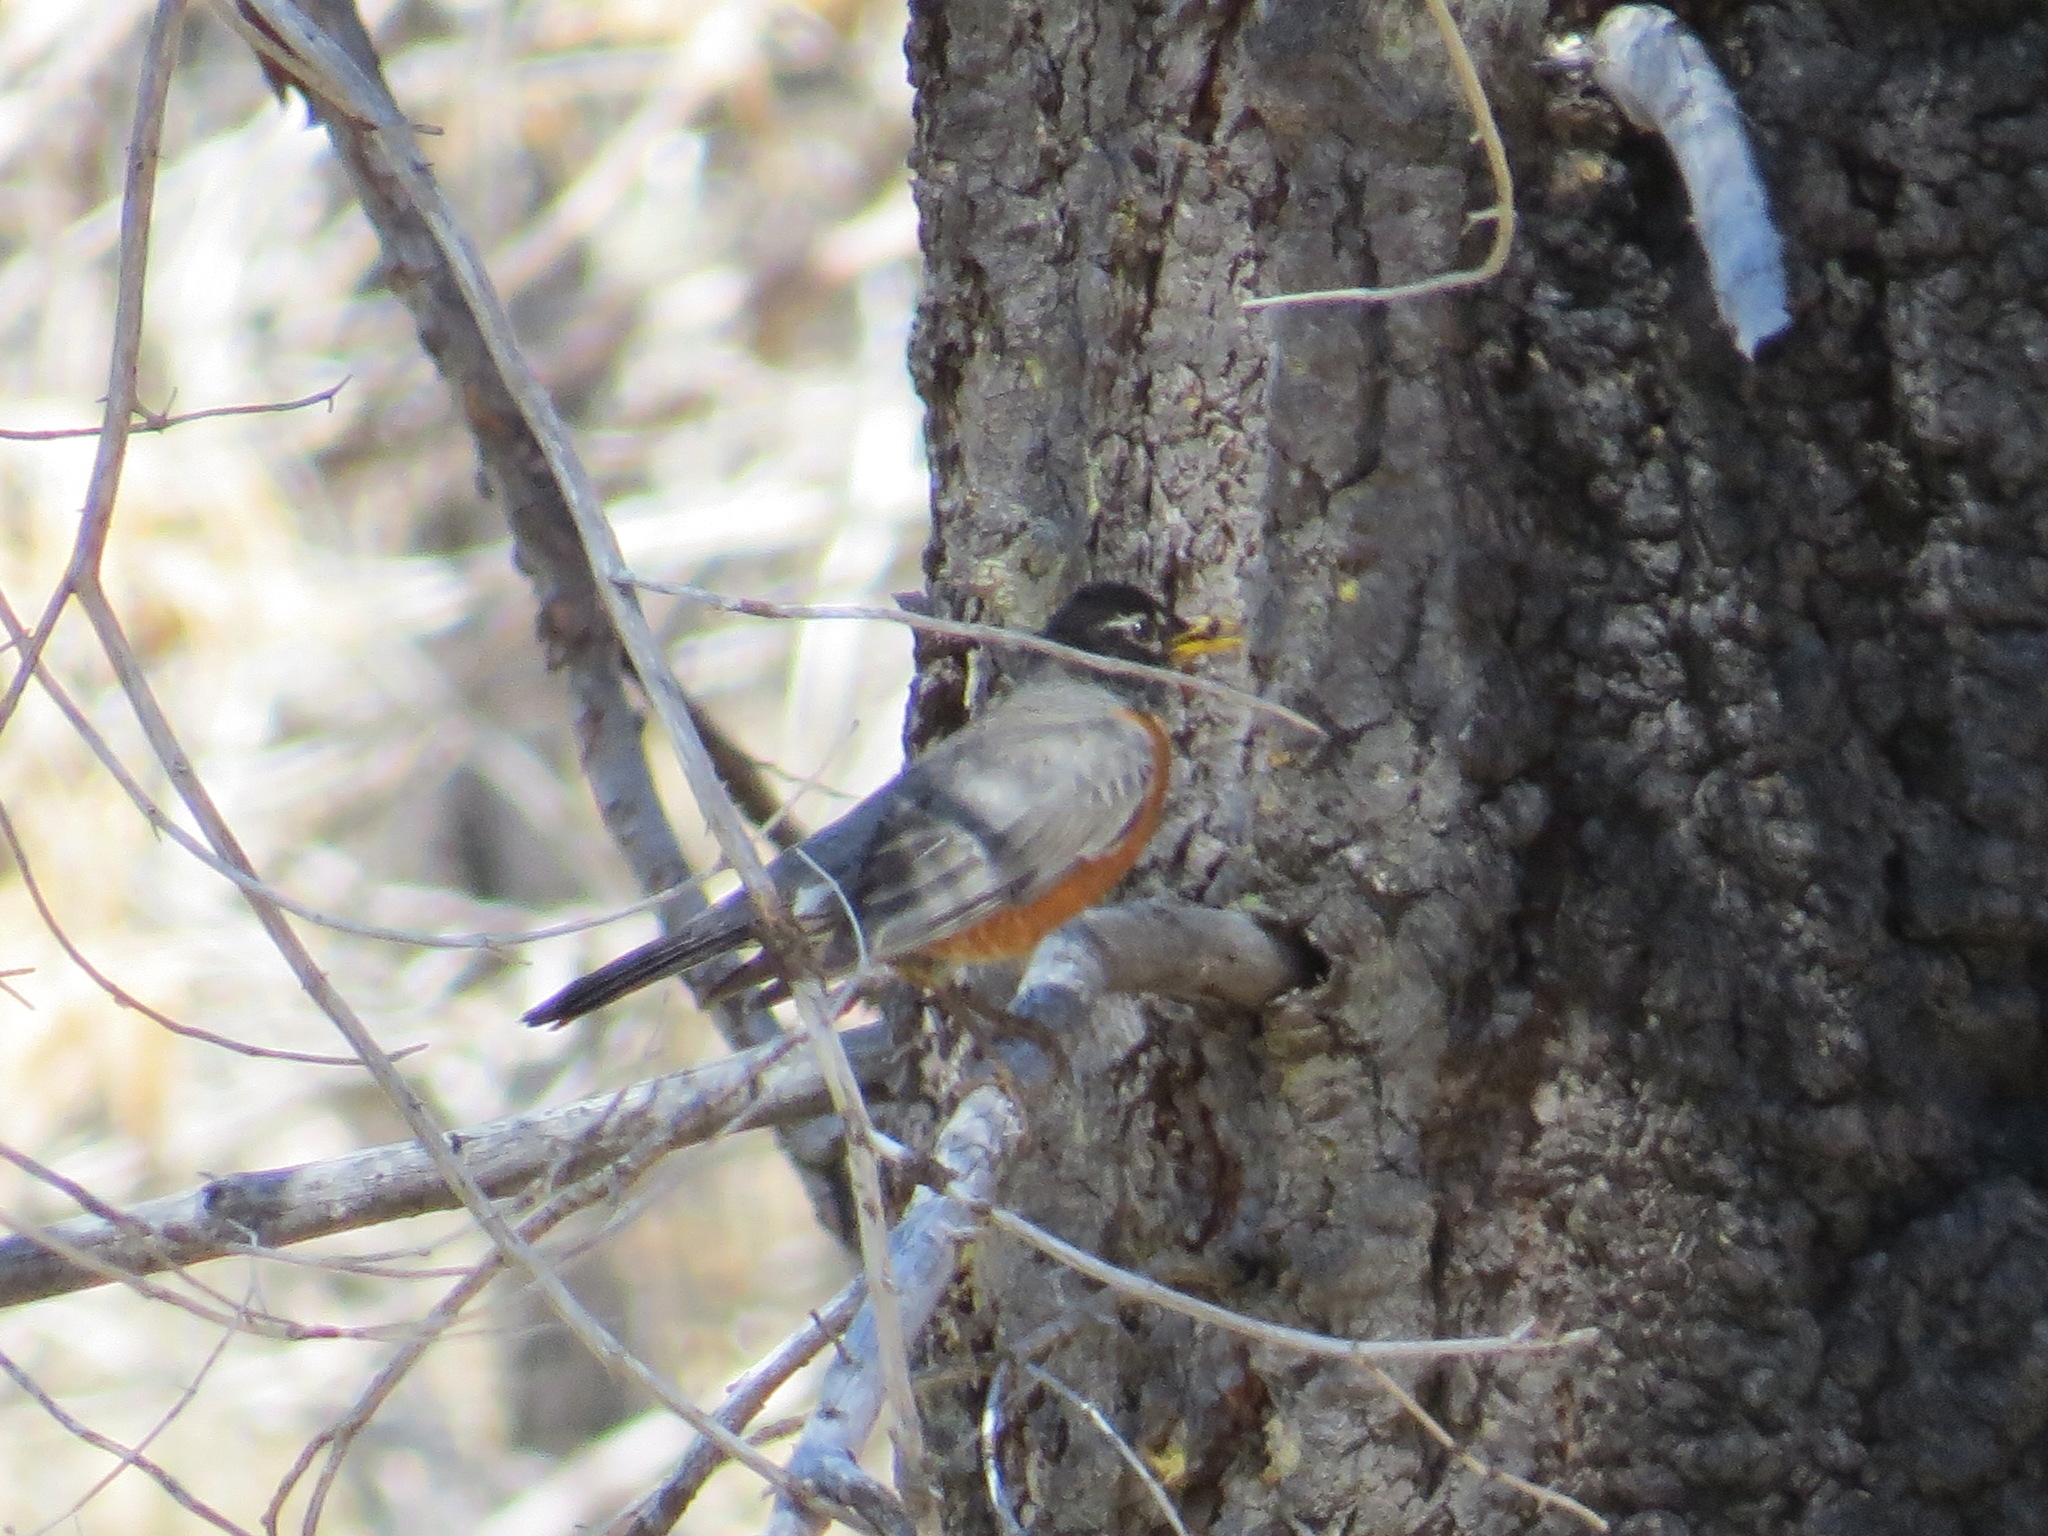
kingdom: Animalia
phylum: Chordata
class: Aves
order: Passeriformes
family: Turdidae
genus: Turdus
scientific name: Turdus migratorius
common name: American robin
